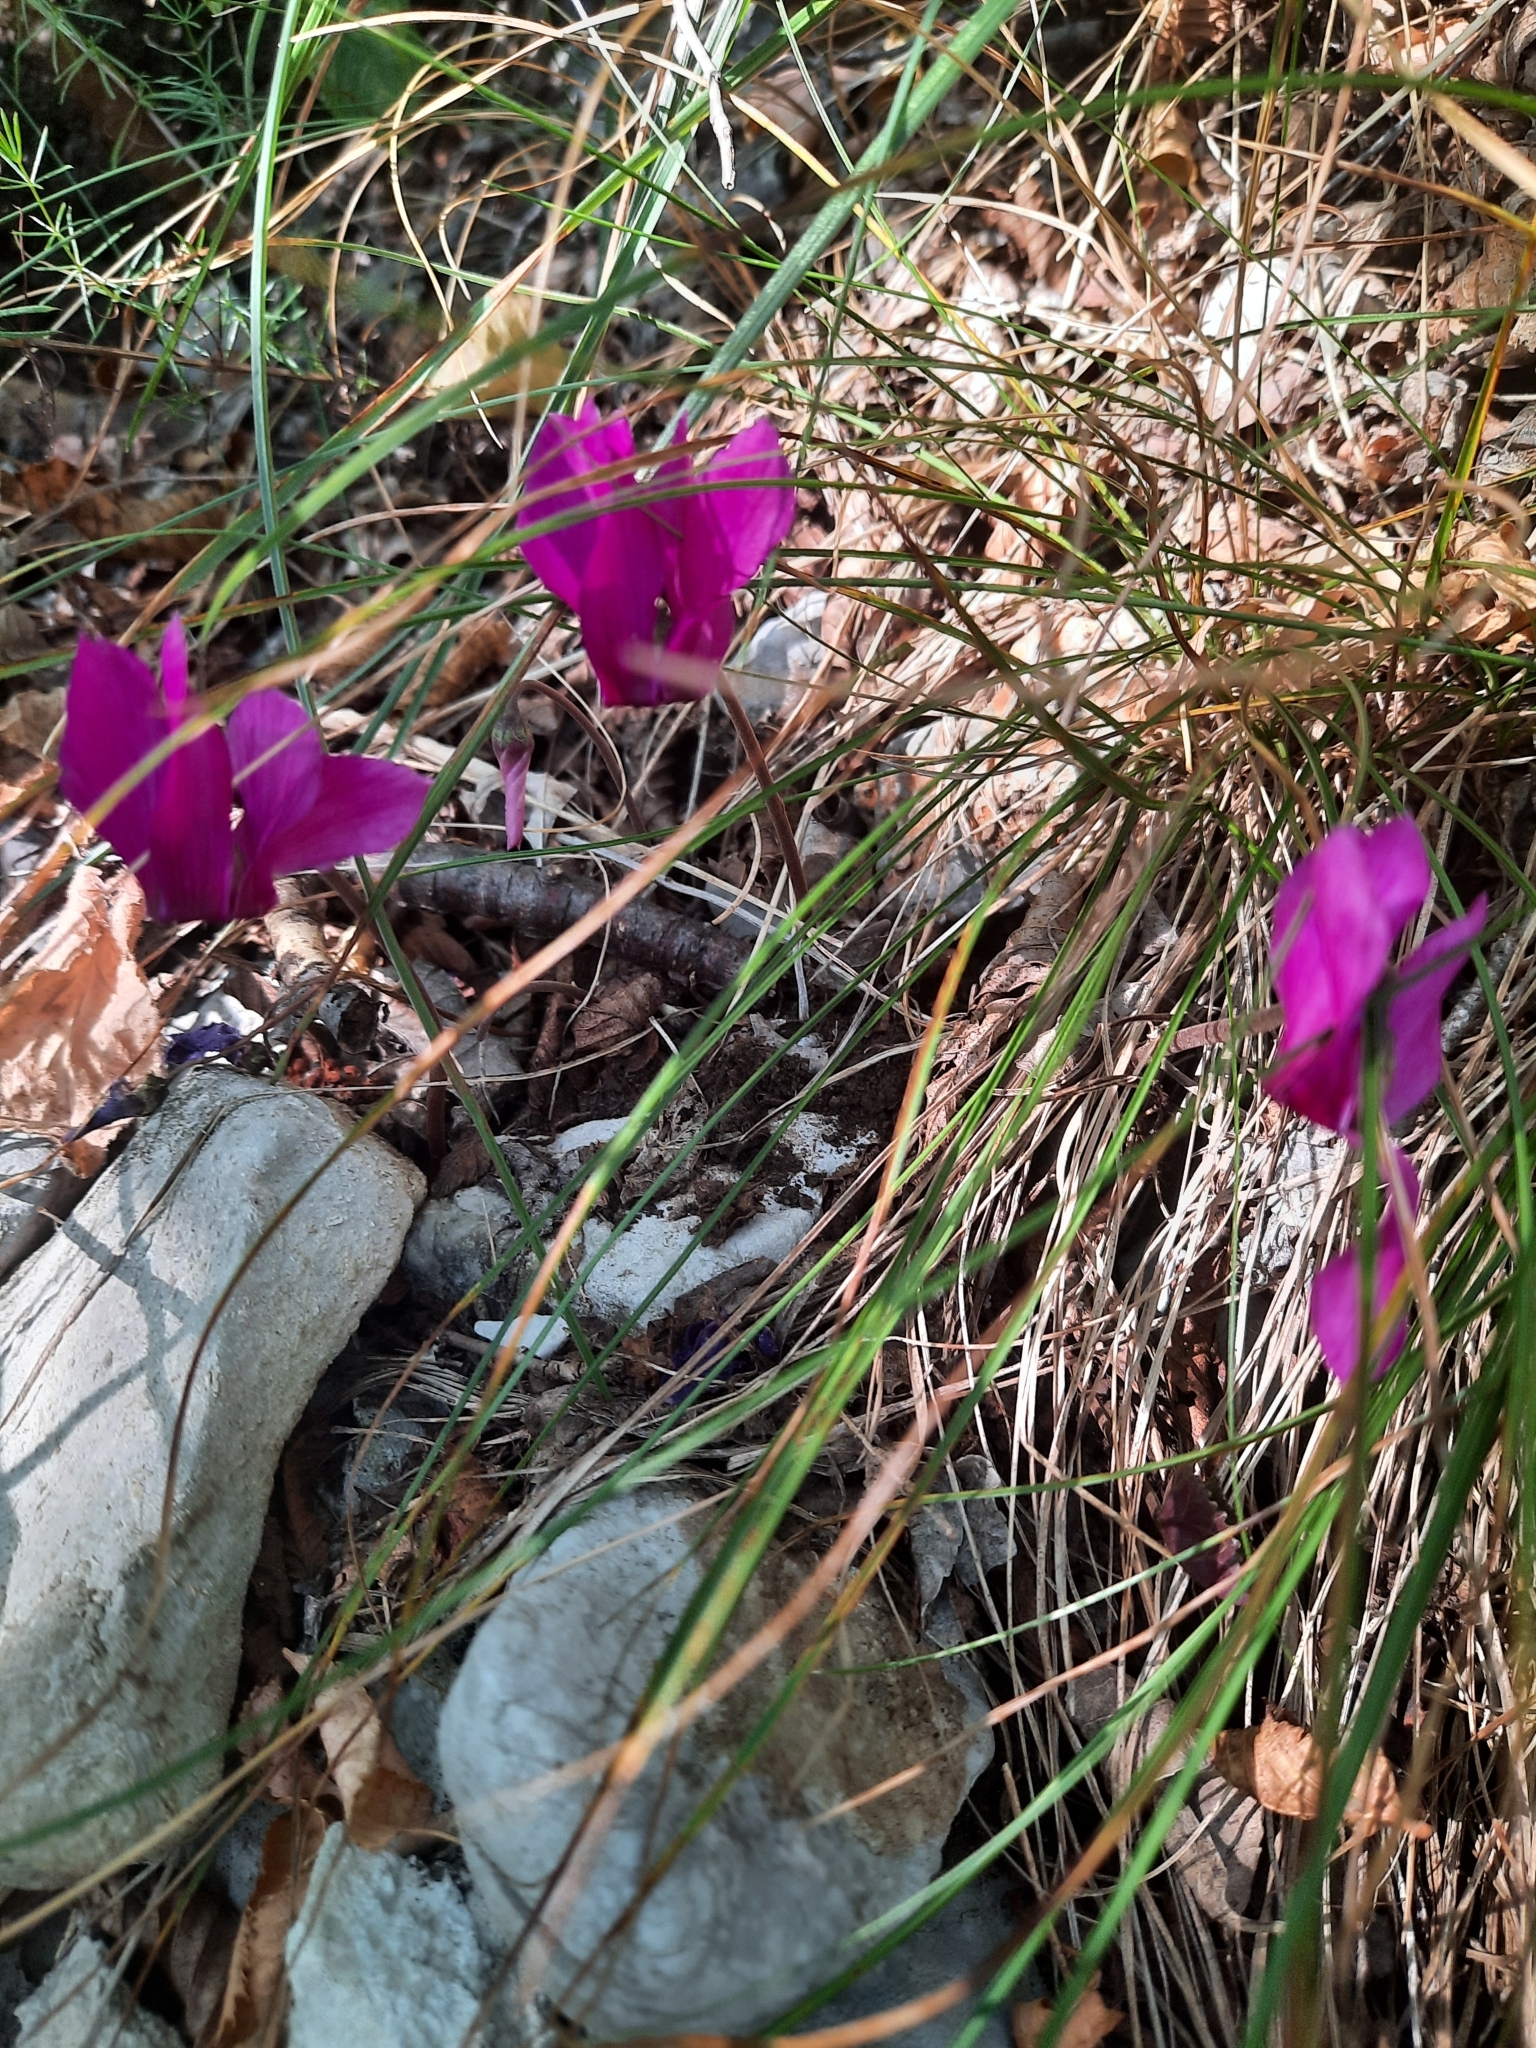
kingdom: Plantae
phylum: Tracheophyta
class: Magnoliopsida
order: Ericales
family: Primulaceae
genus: Cyclamen
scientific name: Cyclamen purpurascens
